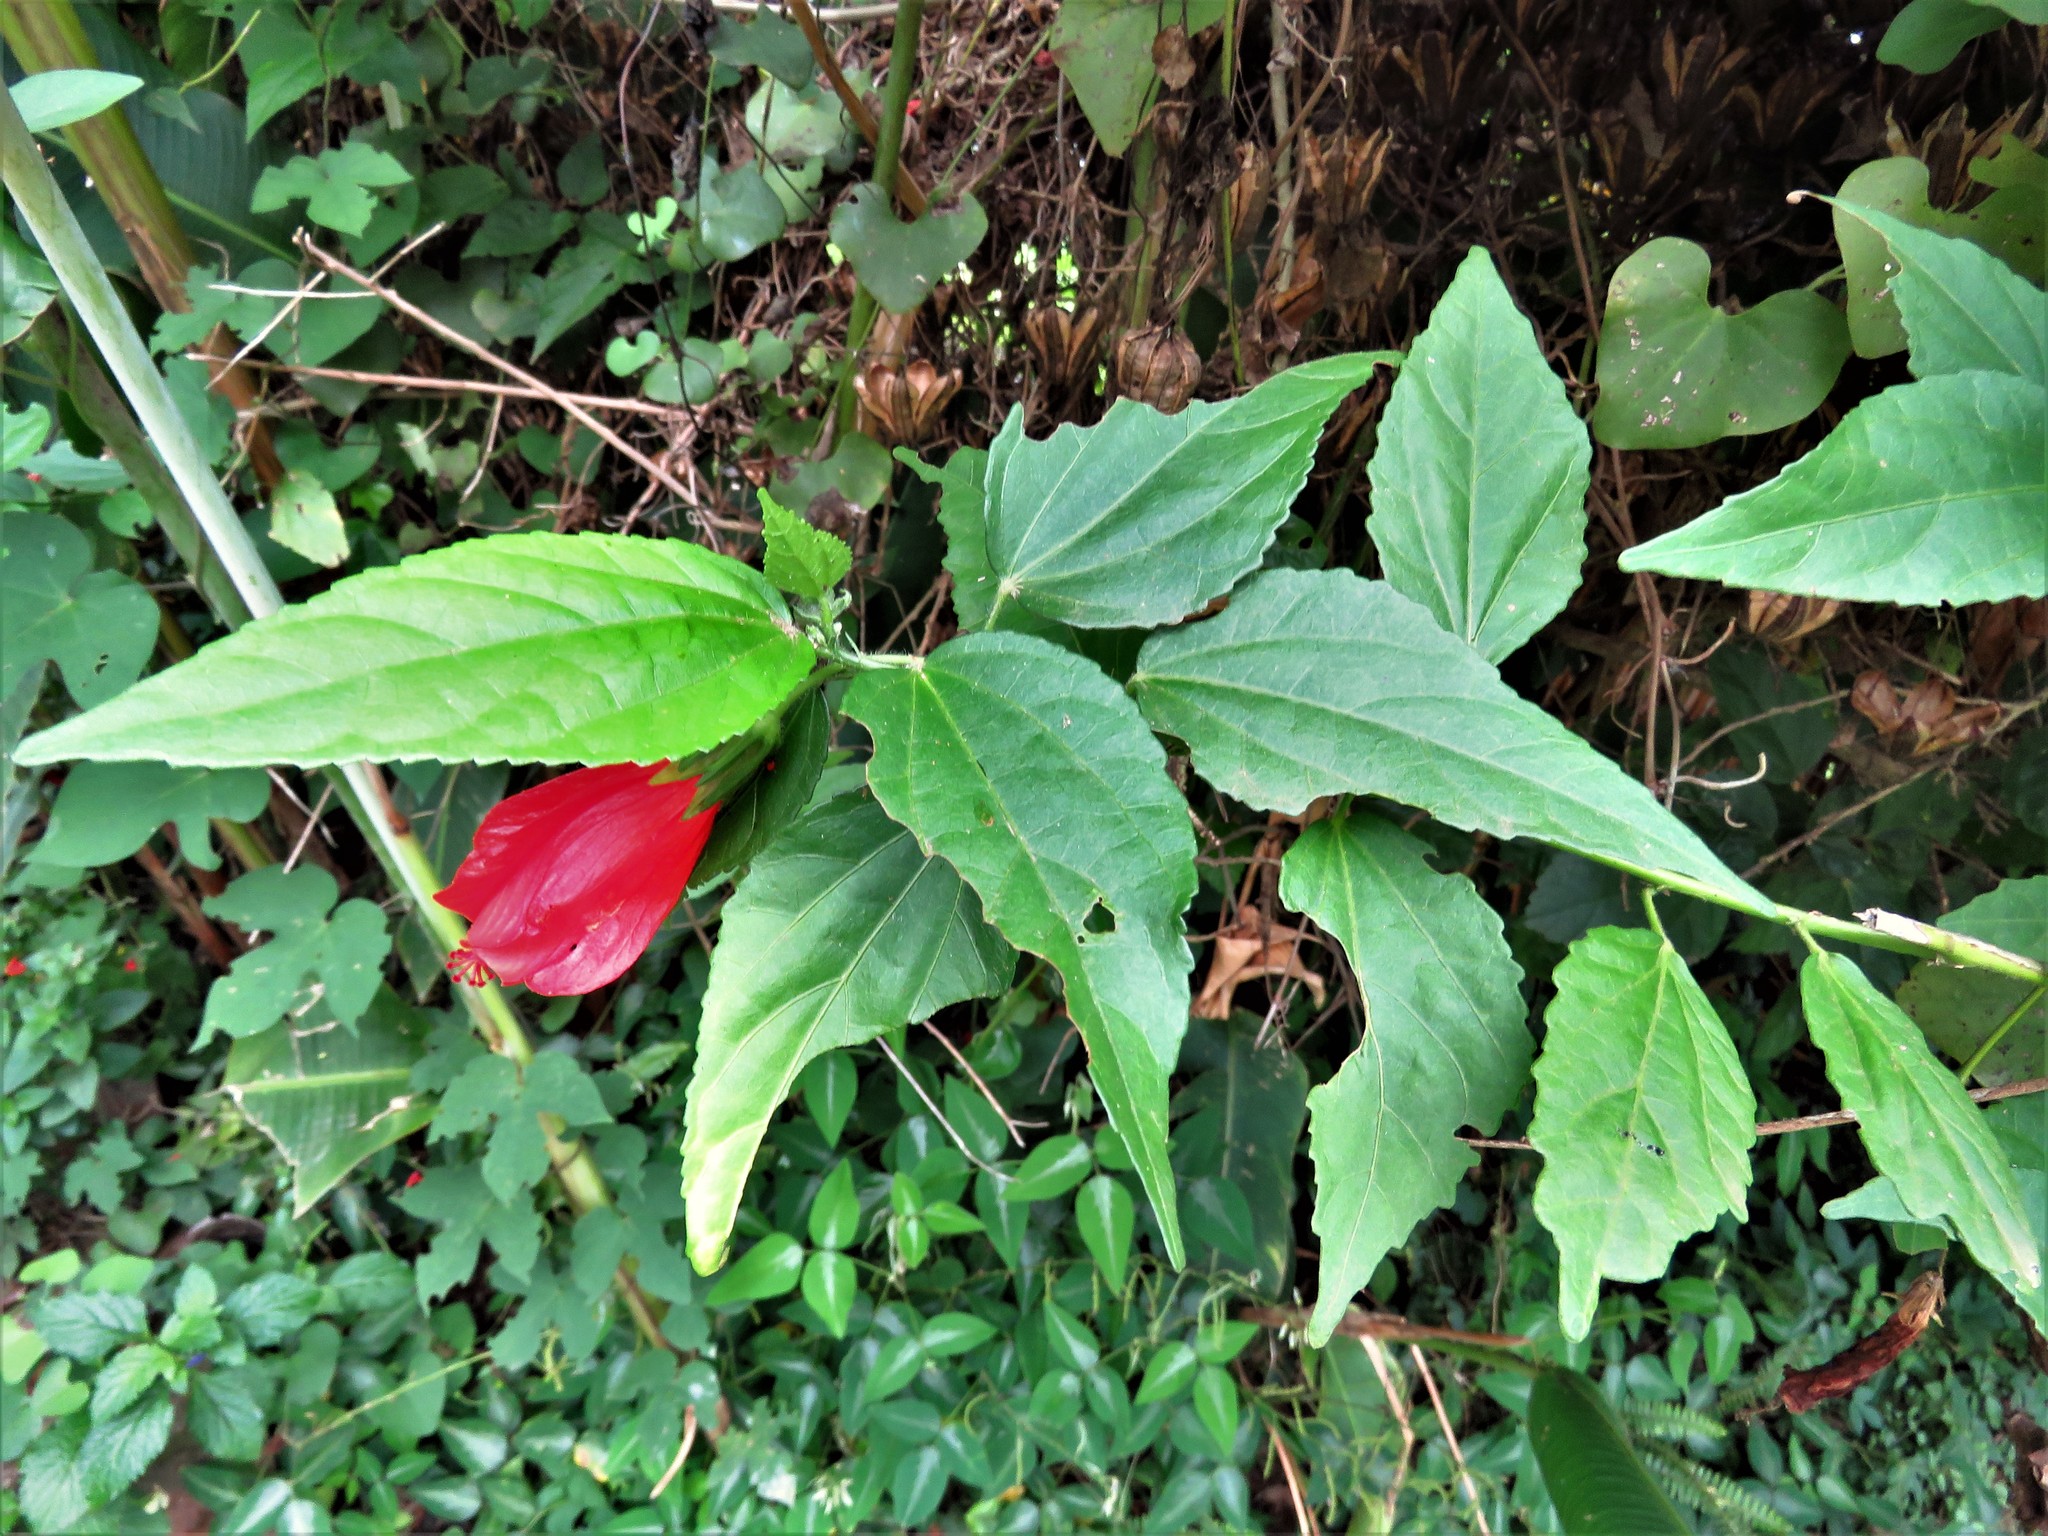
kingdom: Plantae
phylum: Tracheophyta
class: Magnoliopsida
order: Malvales
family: Malvaceae
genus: Malvaviscus
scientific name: Malvaviscus penduliflorus
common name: Mazapan
